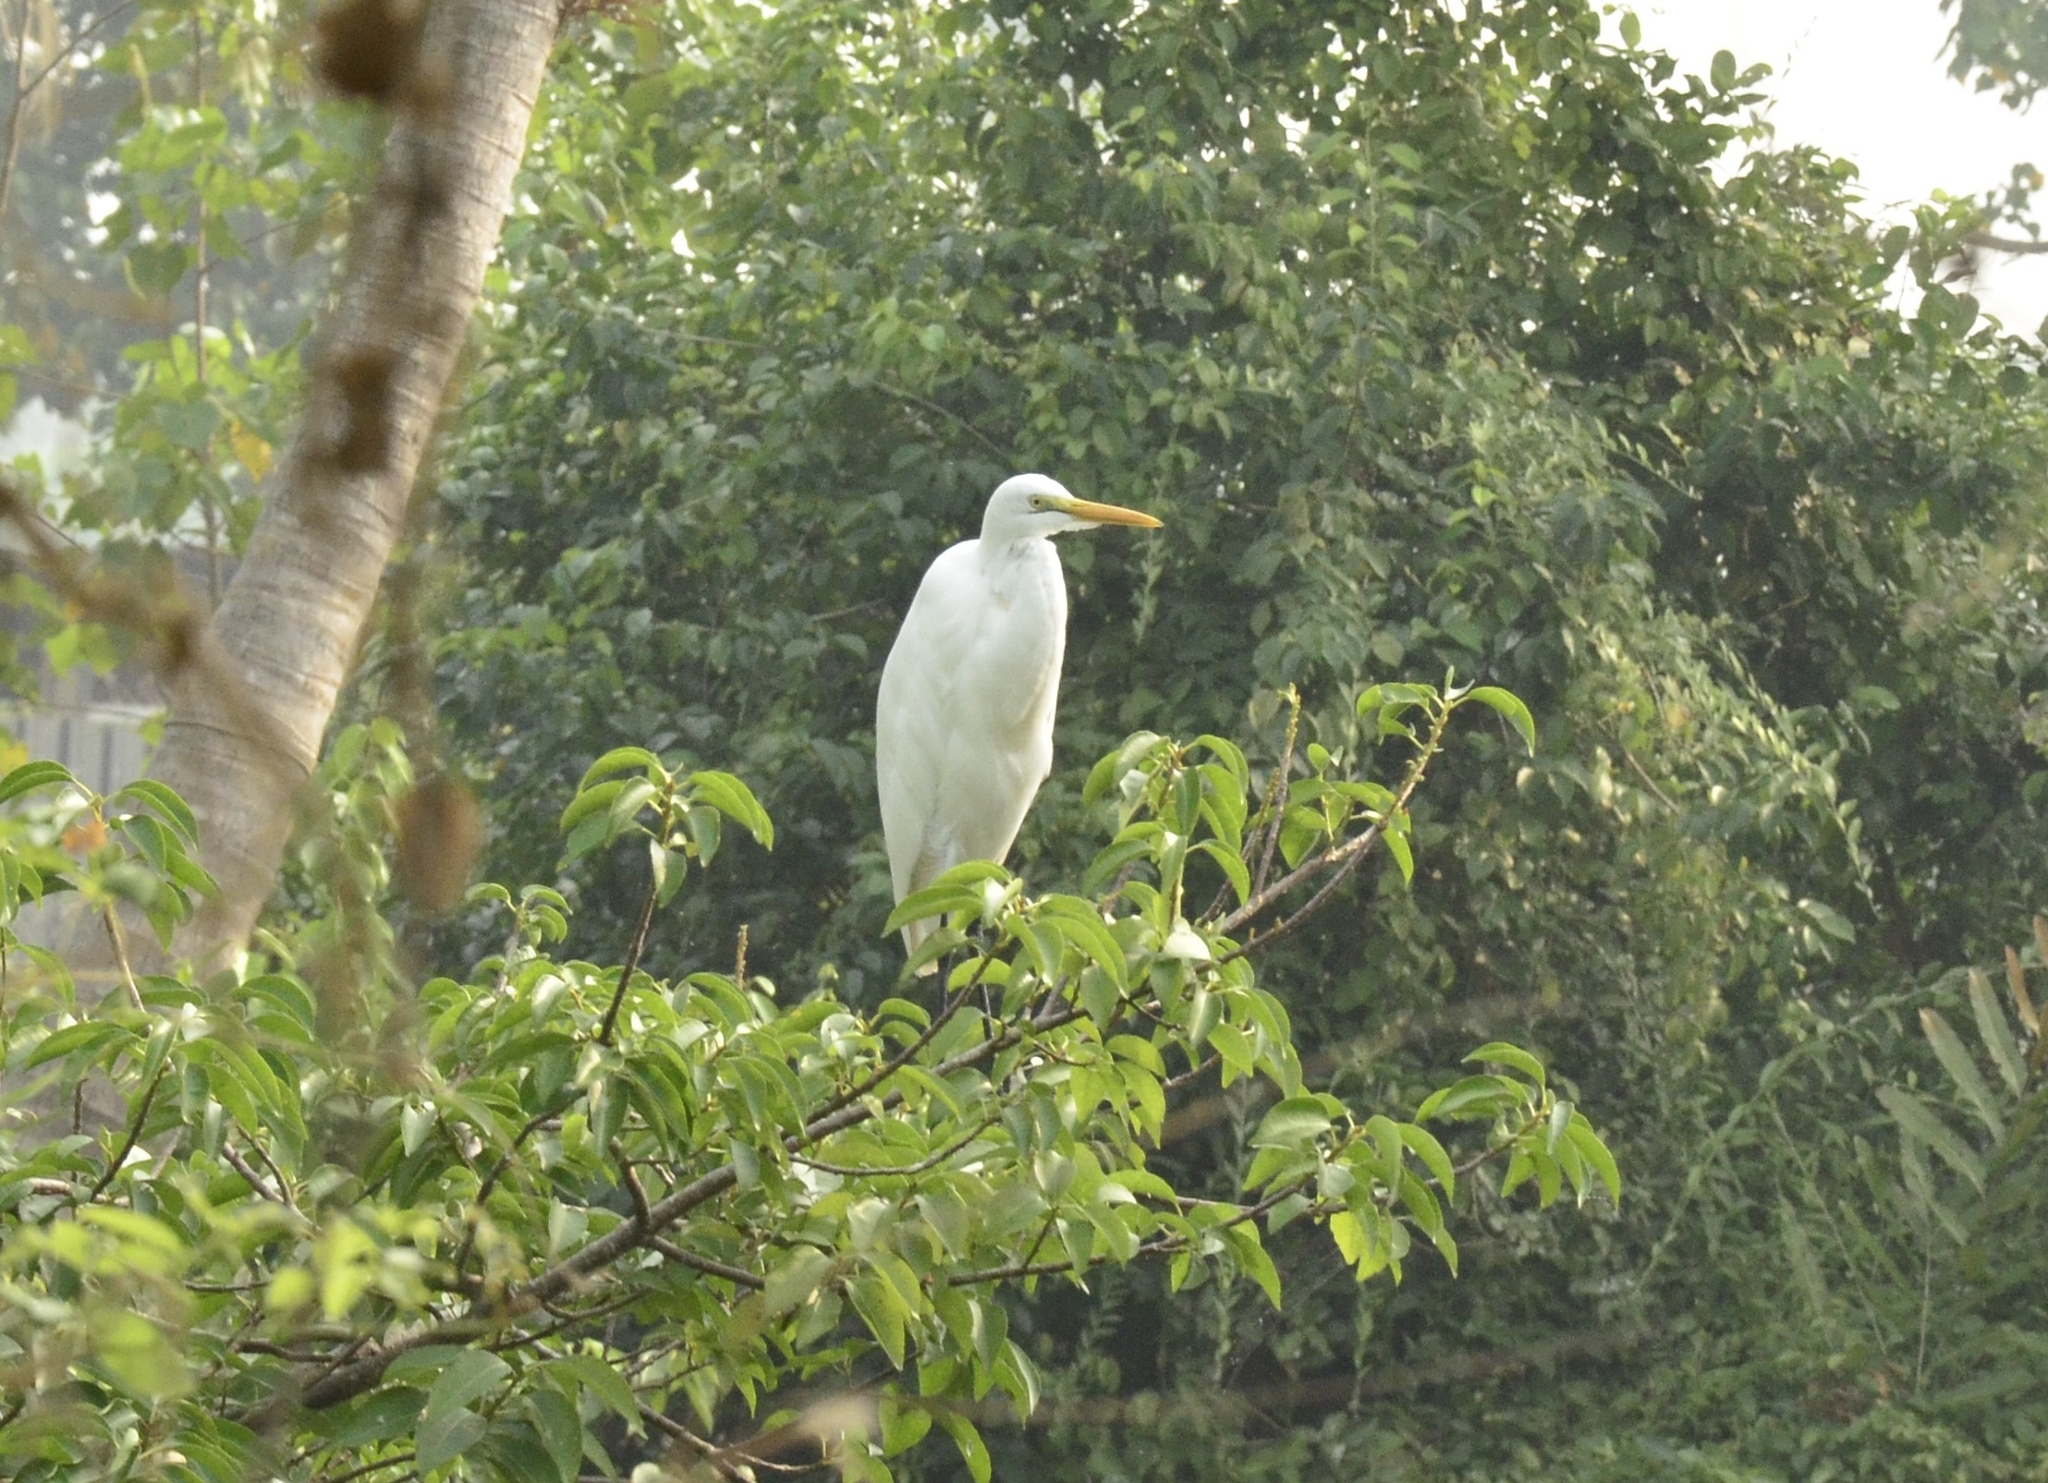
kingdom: Animalia
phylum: Chordata
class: Aves
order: Pelecaniformes
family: Ardeidae
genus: Ardea
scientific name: Ardea alba
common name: Great egret
